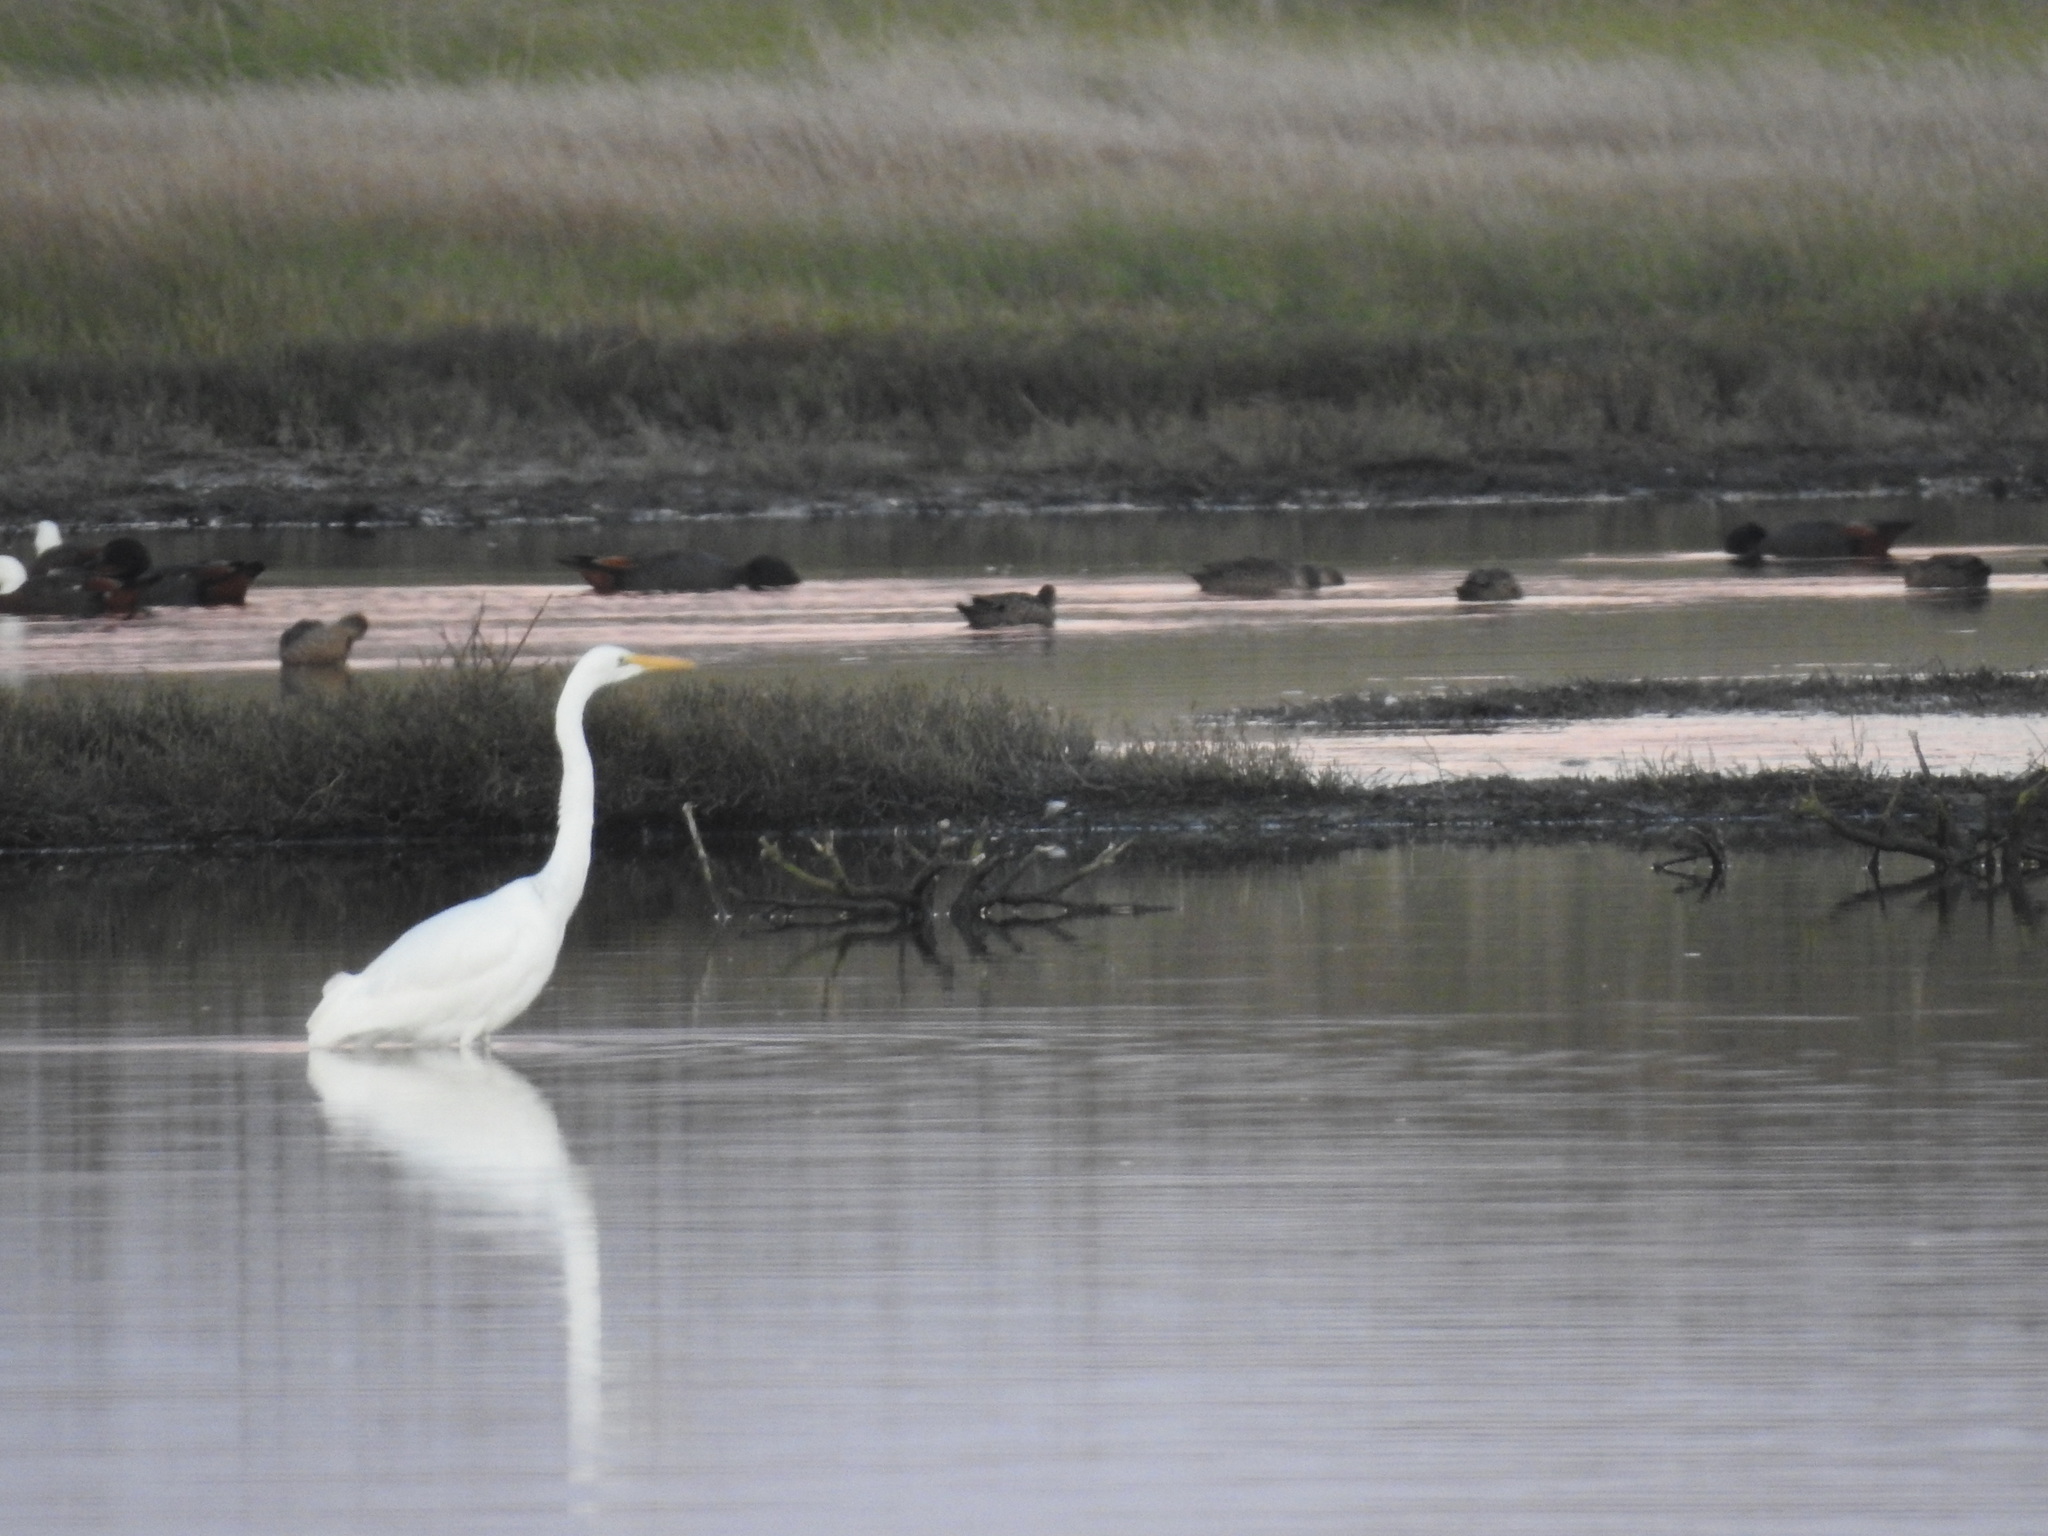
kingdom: Animalia
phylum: Chordata
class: Aves
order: Pelecaniformes
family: Ardeidae
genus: Ardea
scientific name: Ardea modesta
